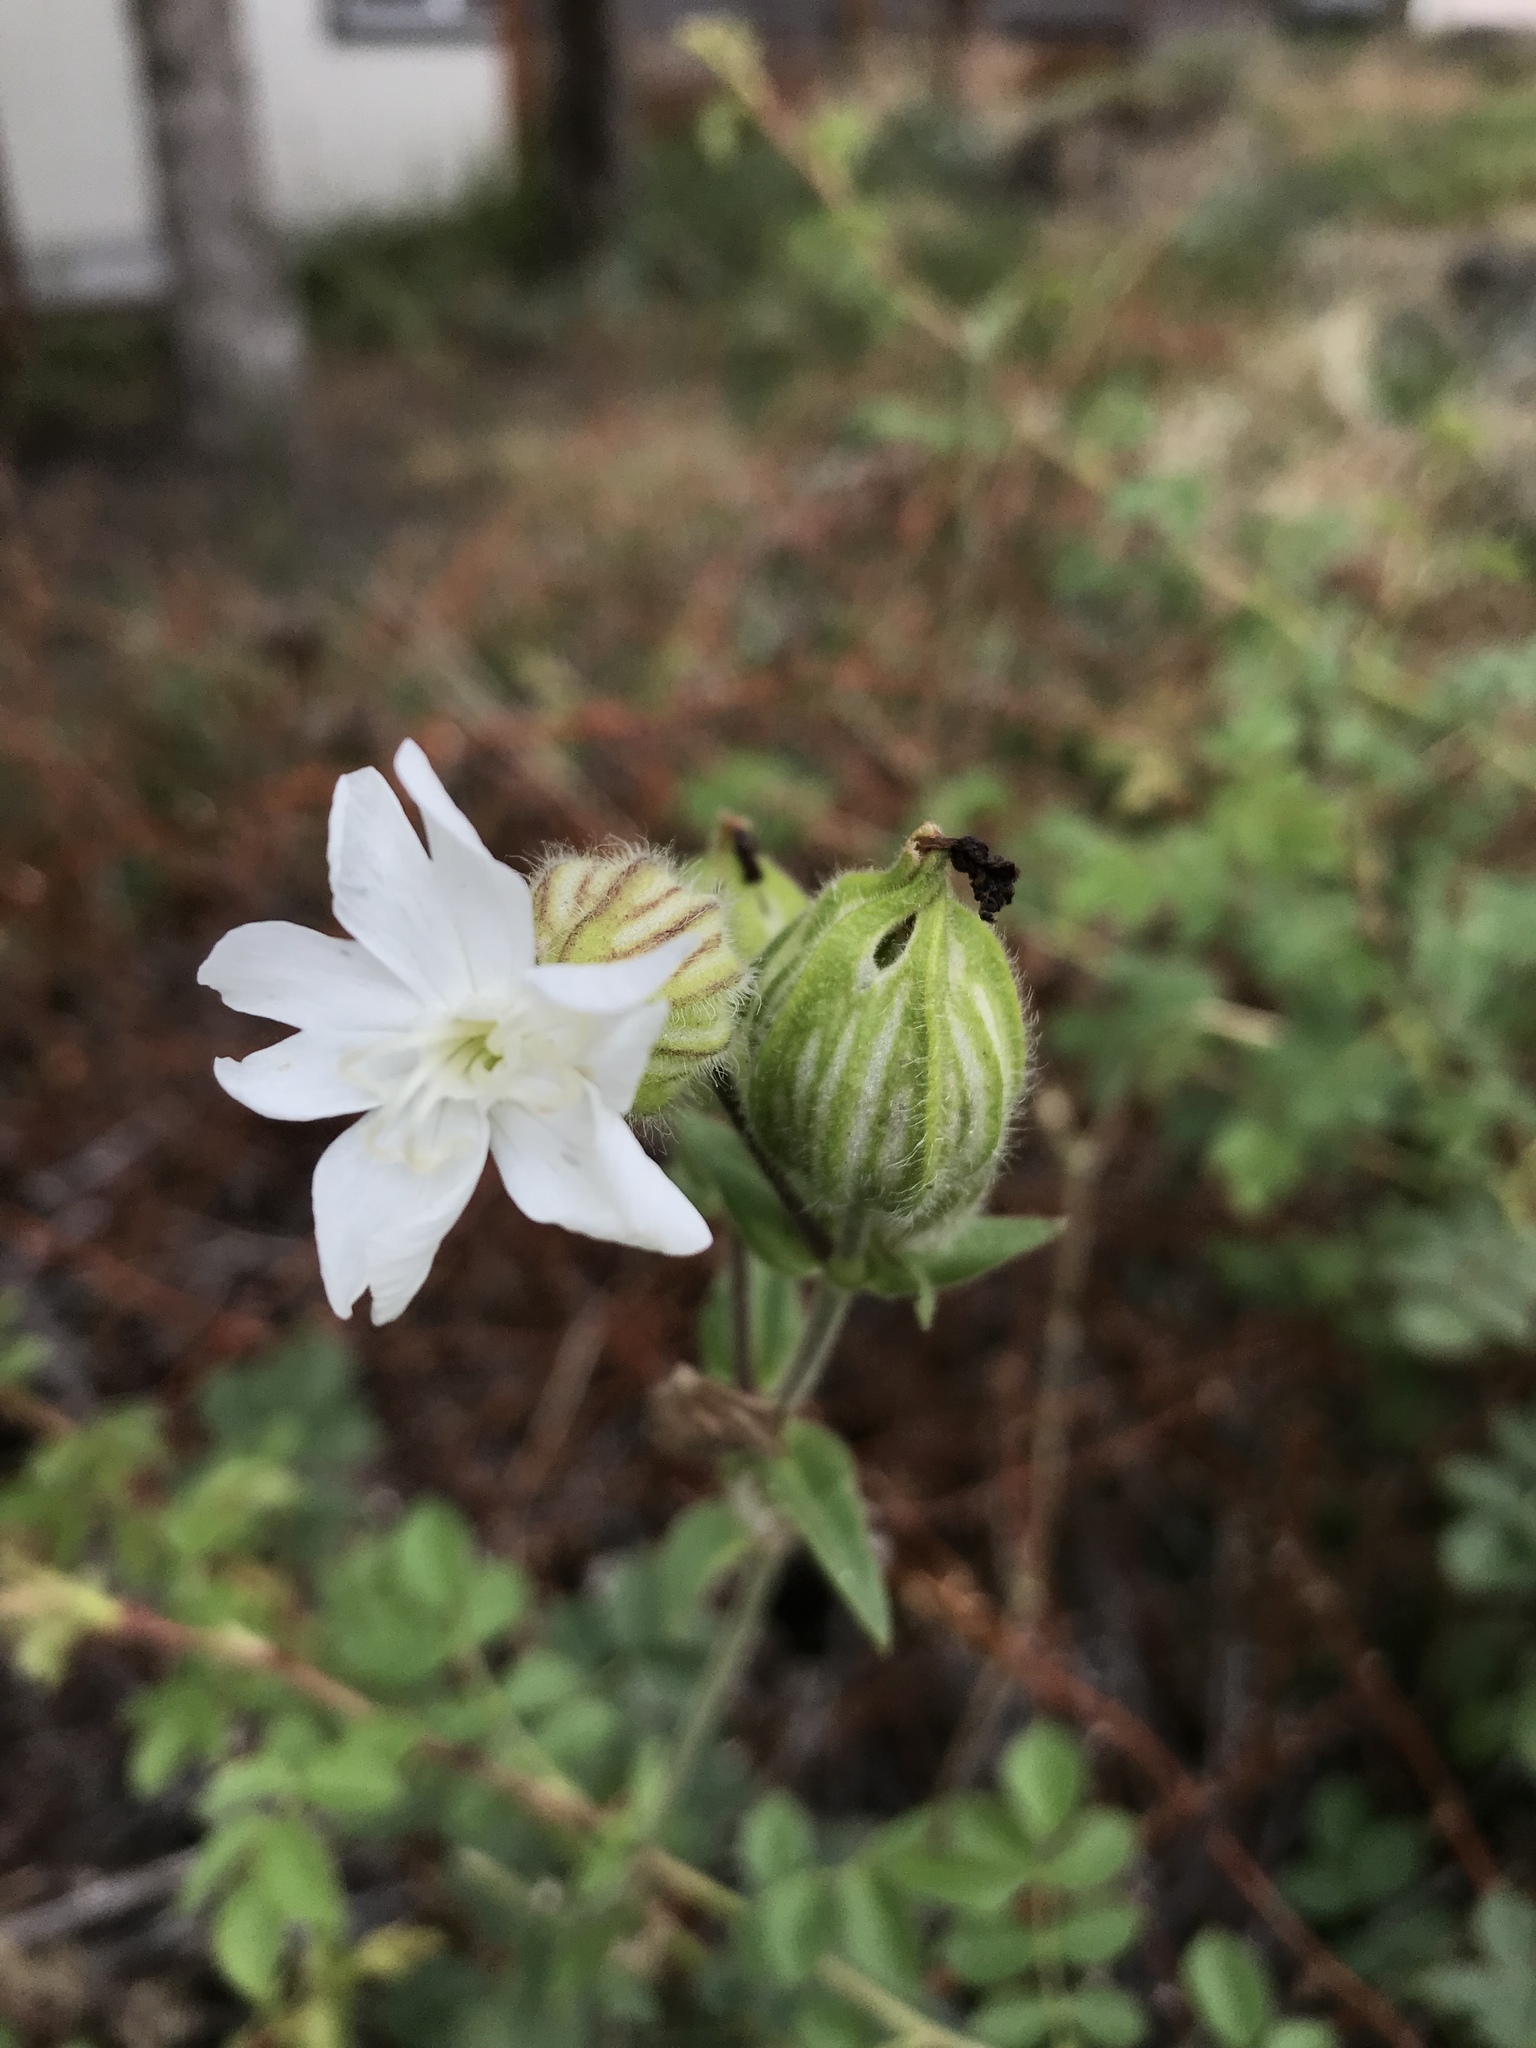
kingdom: Plantae
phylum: Tracheophyta
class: Magnoliopsida
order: Caryophyllales
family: Caryophyllaceae
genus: Silene
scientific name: Silene latifolia
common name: White campion
